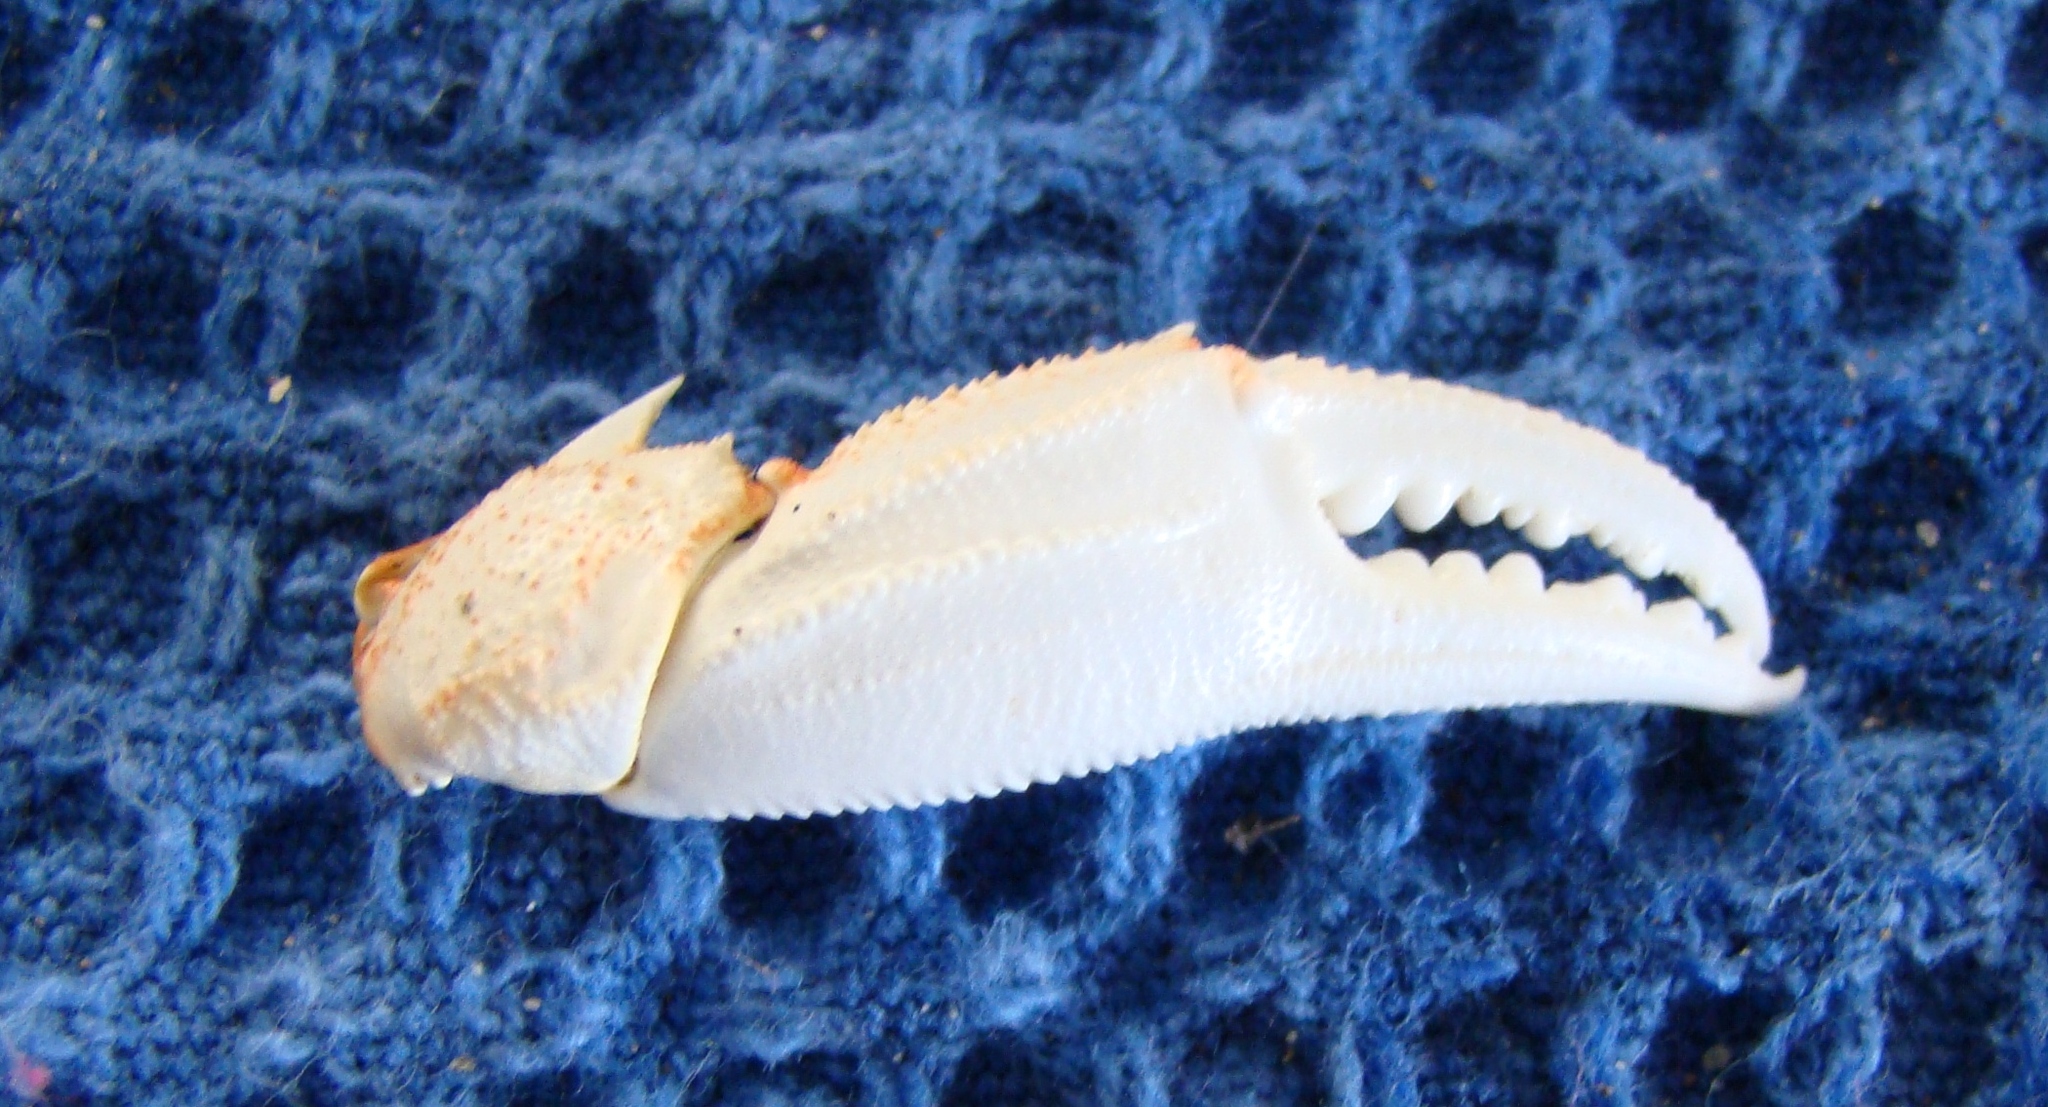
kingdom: Animalia
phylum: Arthropoda
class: Malacostraca
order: Decapoda
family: Ovalipidae
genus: Ovalipes
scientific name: Ovalipes catharus
